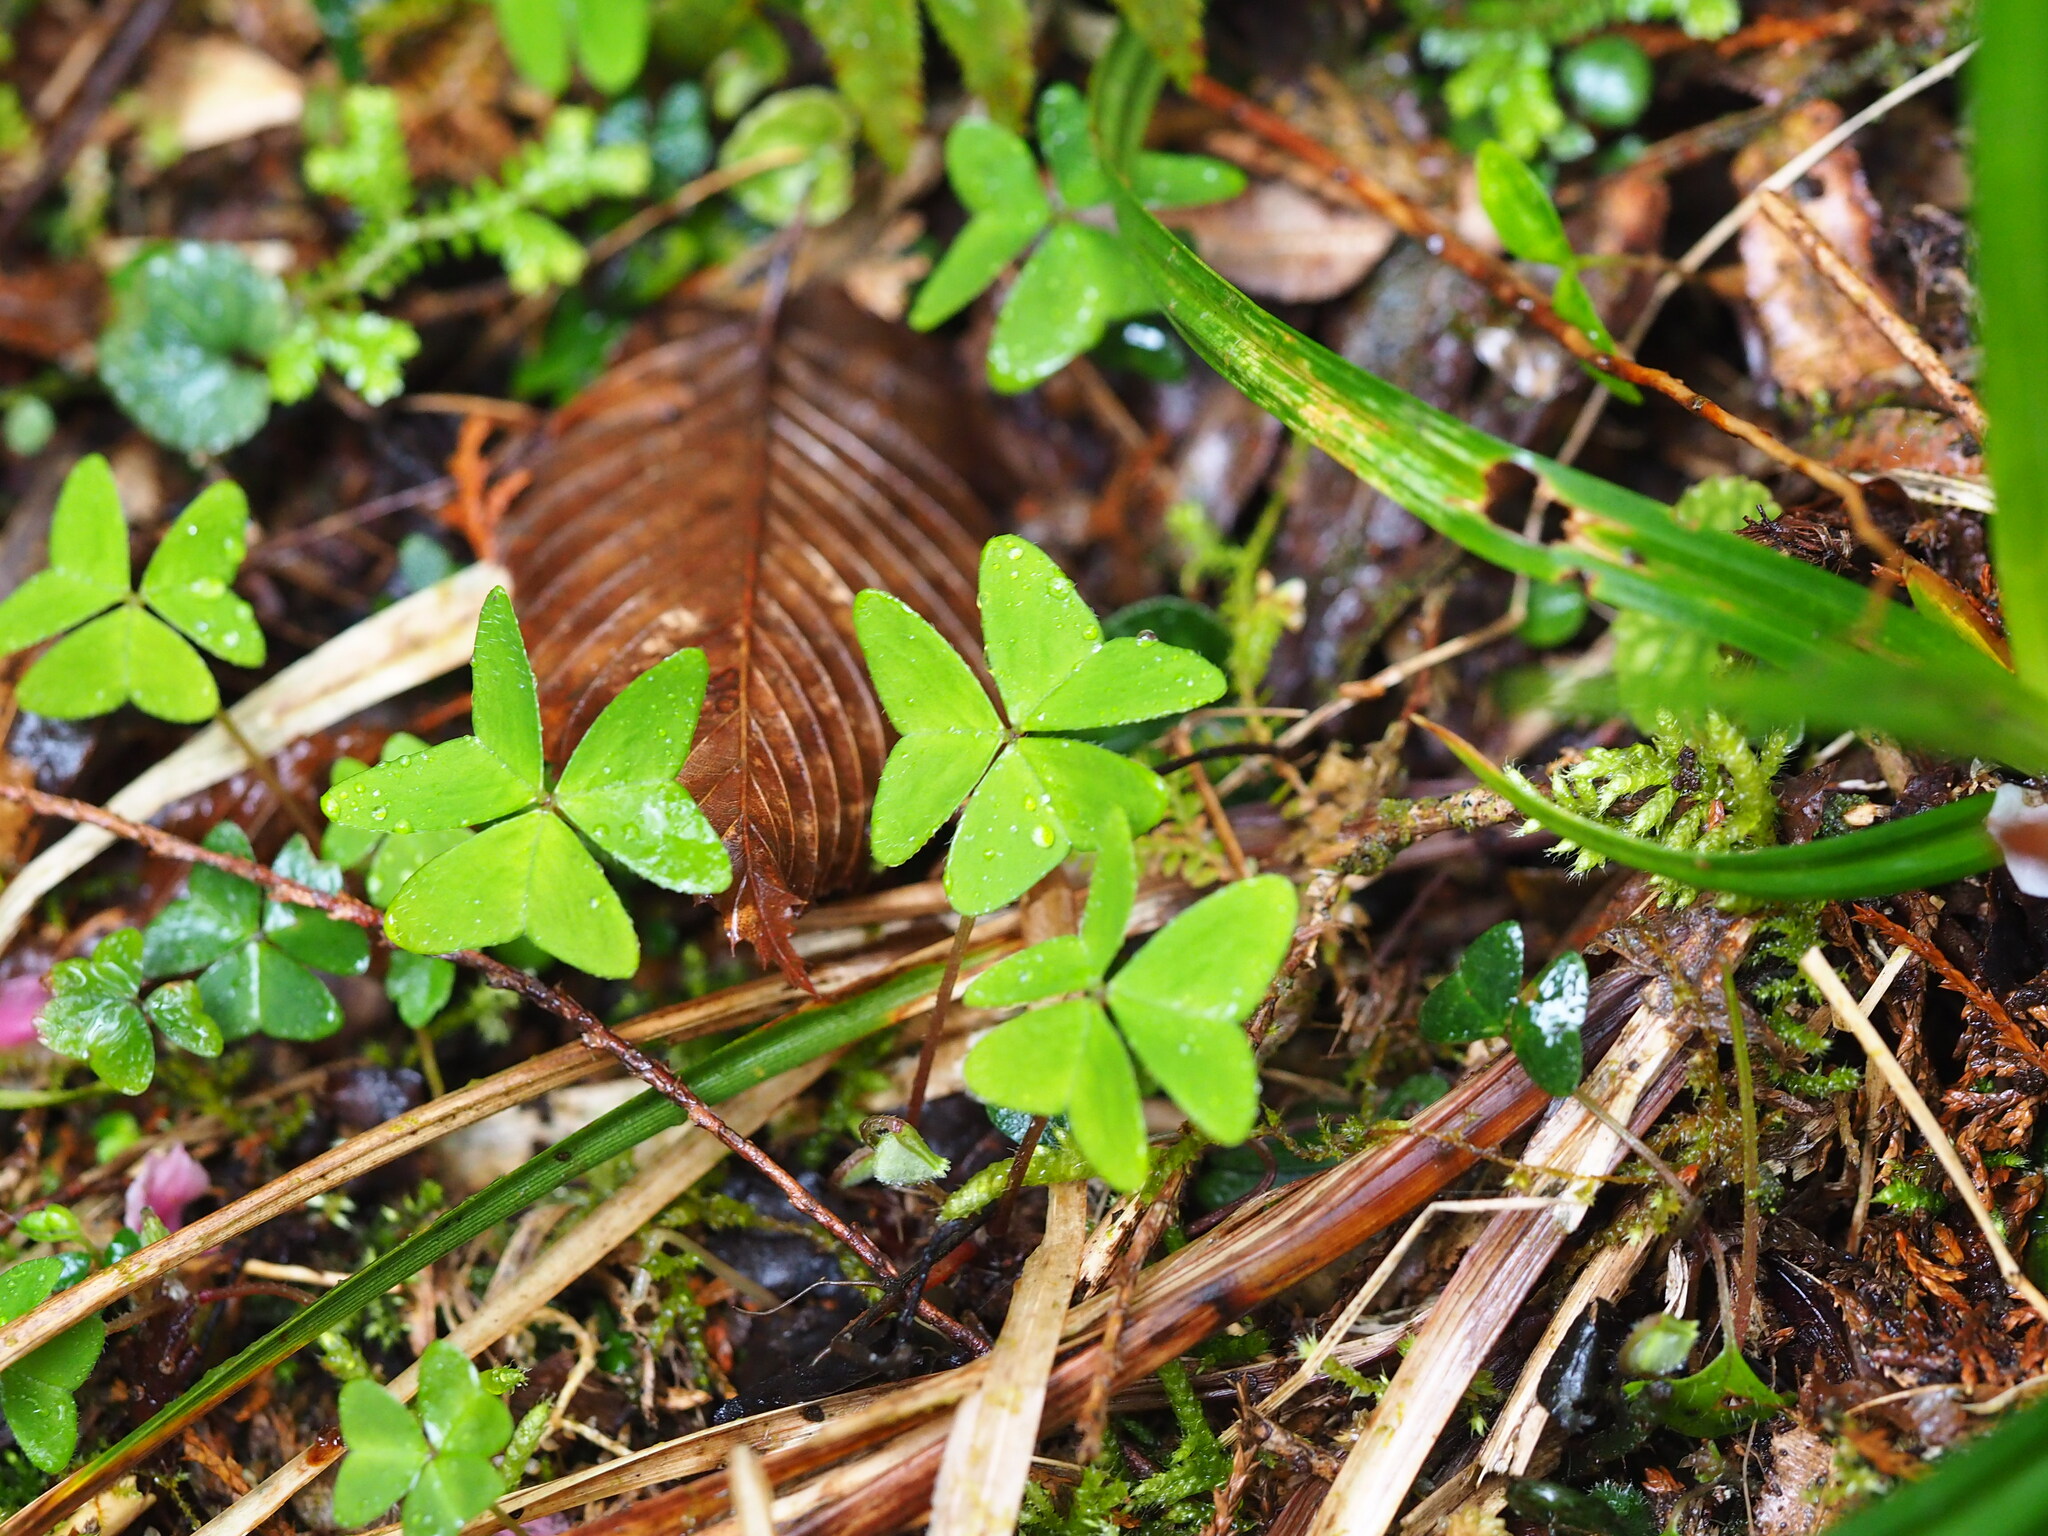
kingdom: Plantae
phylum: Tracheophyta
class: Magnoliopsida
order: Oxalidales
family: Oxalidaceae
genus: Oxalis
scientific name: Oxalis griffithii
